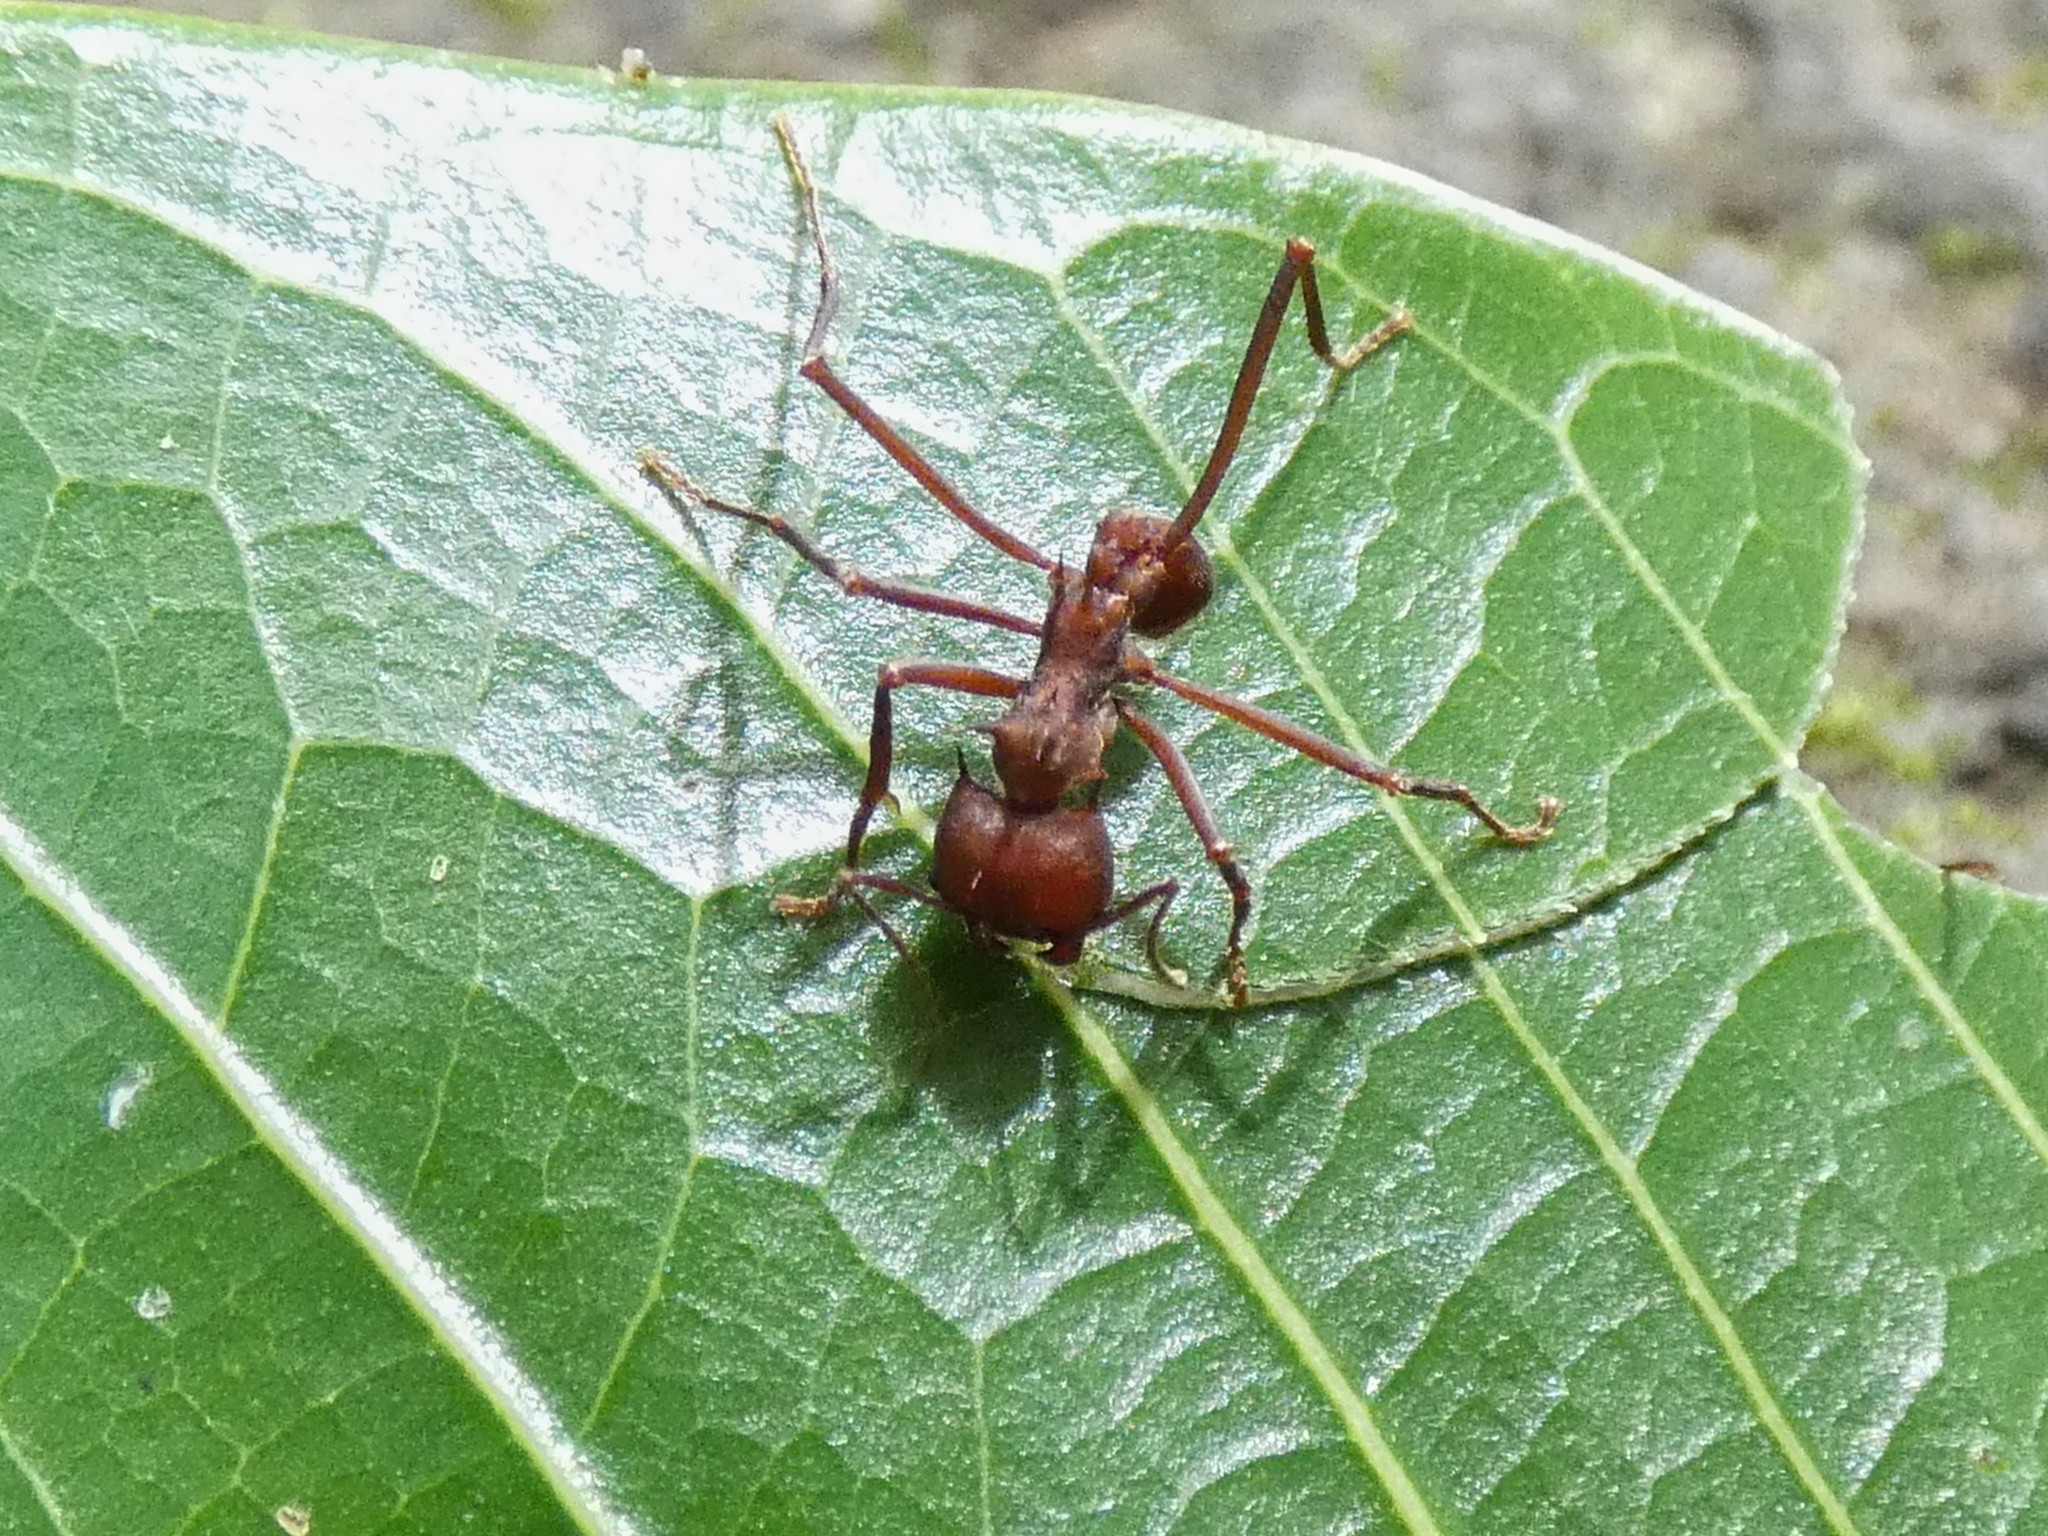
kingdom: Animalia
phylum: Arthropoda
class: Insecta
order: Hymenoptera
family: Formicidae
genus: Atta
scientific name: Atta colombica
